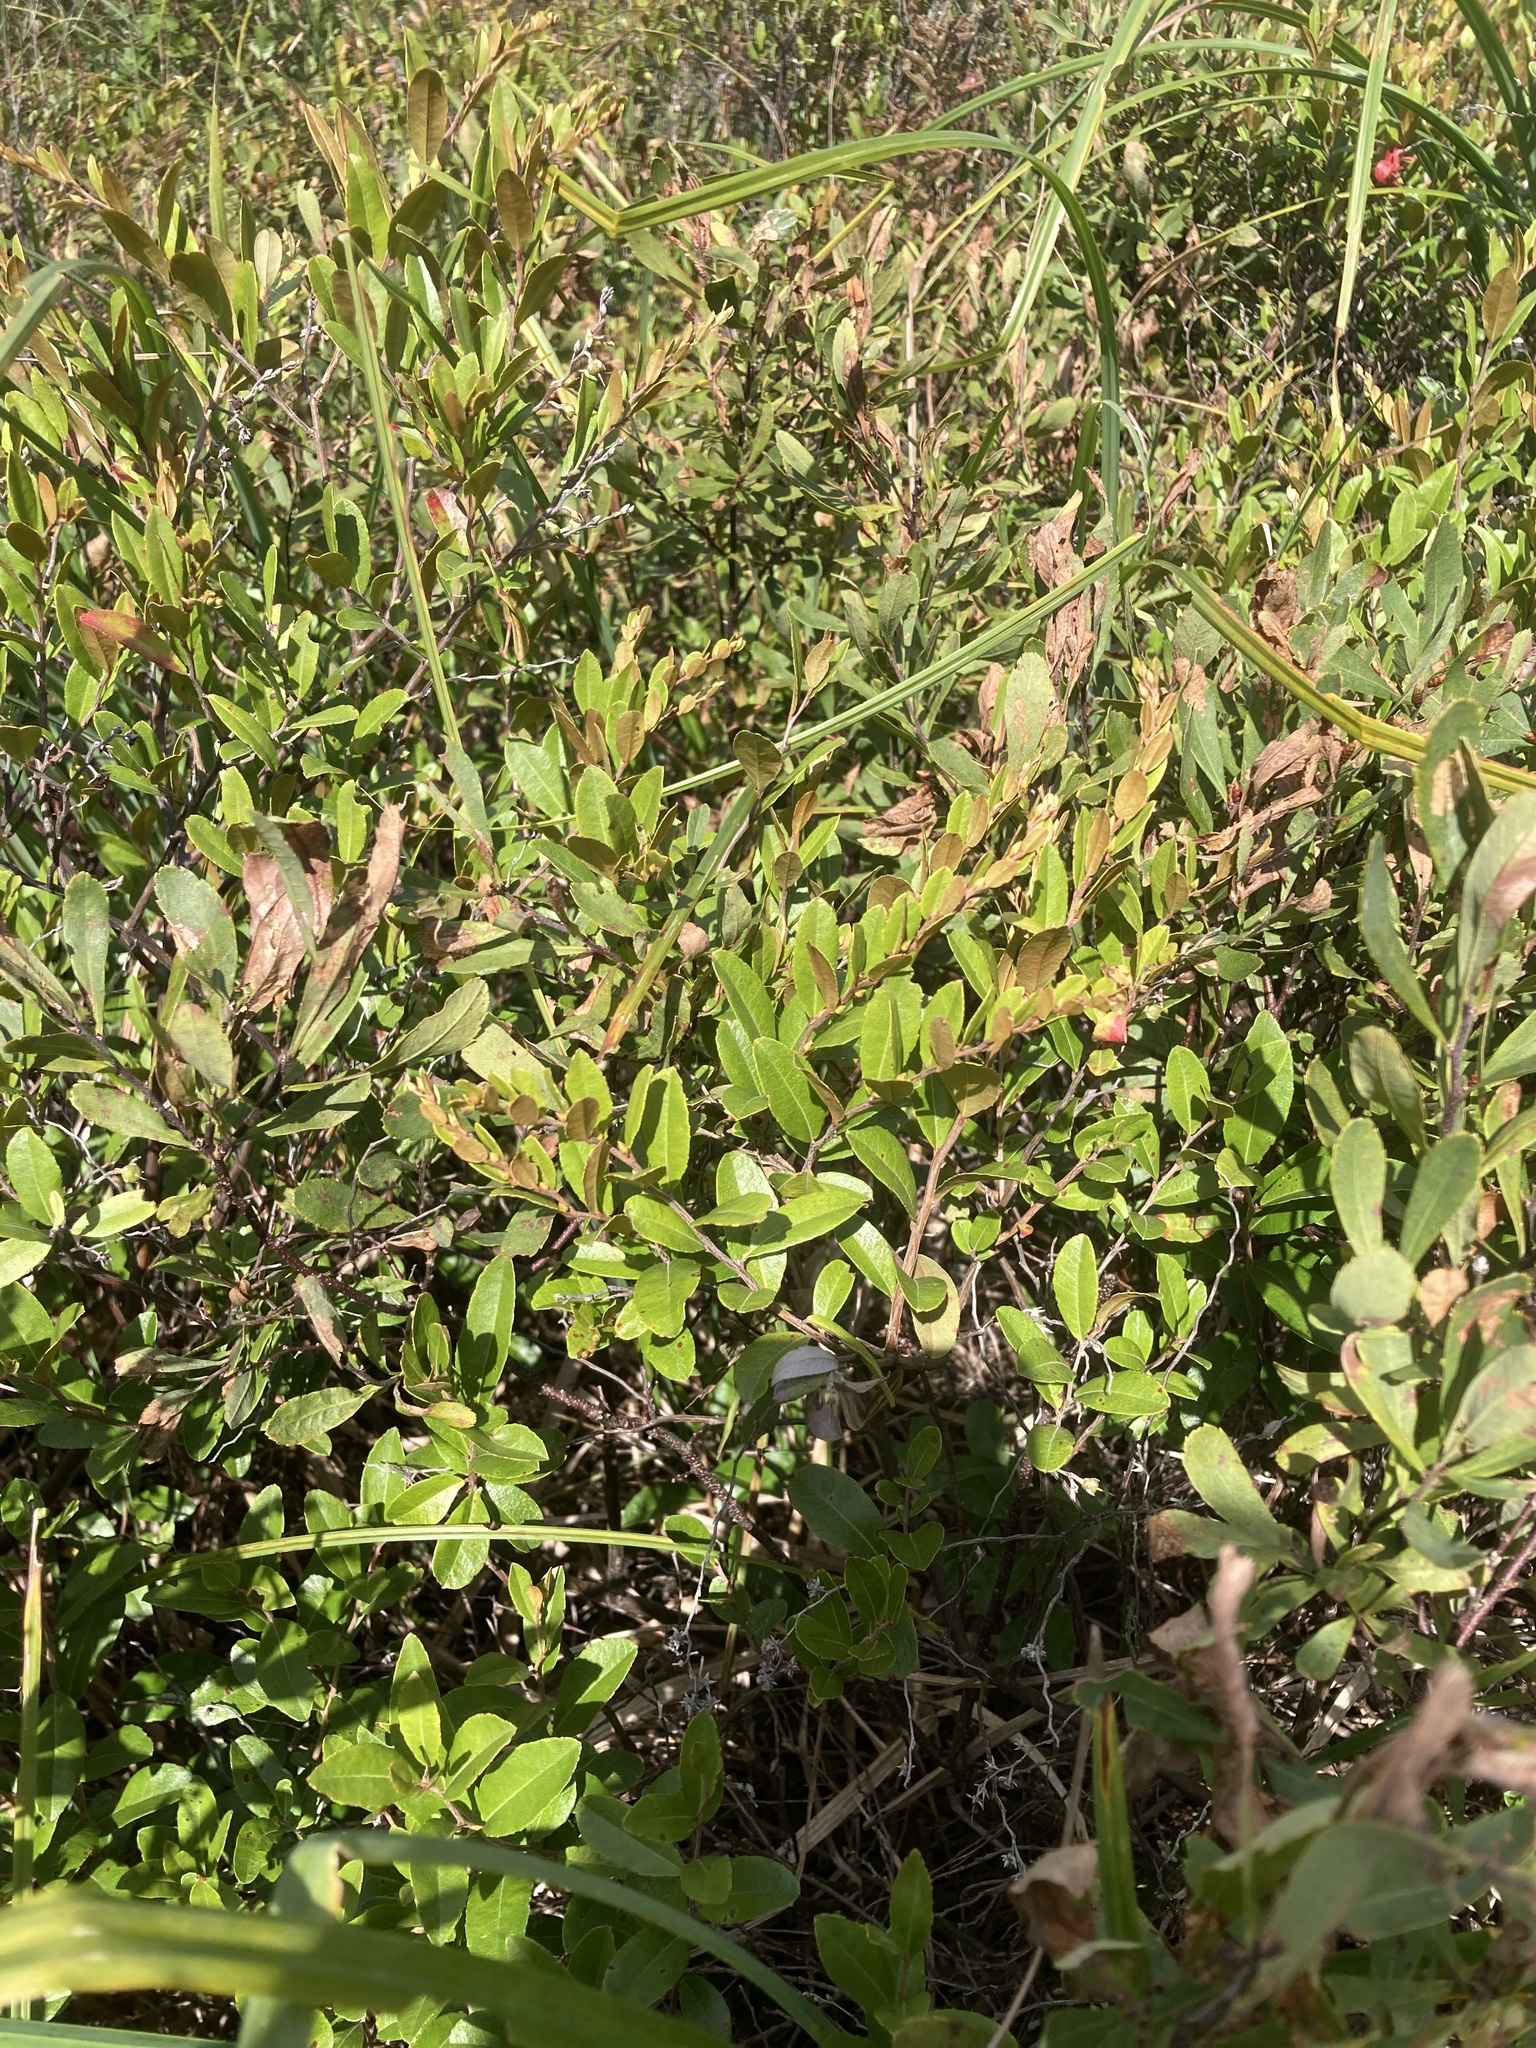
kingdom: Plantae
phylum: Tracheophyta
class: Magnoliopsida
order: Ericales
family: Ericaceae
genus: Chamaedaphne
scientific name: Chamaedaphne calyculata
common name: Leatherleaf
